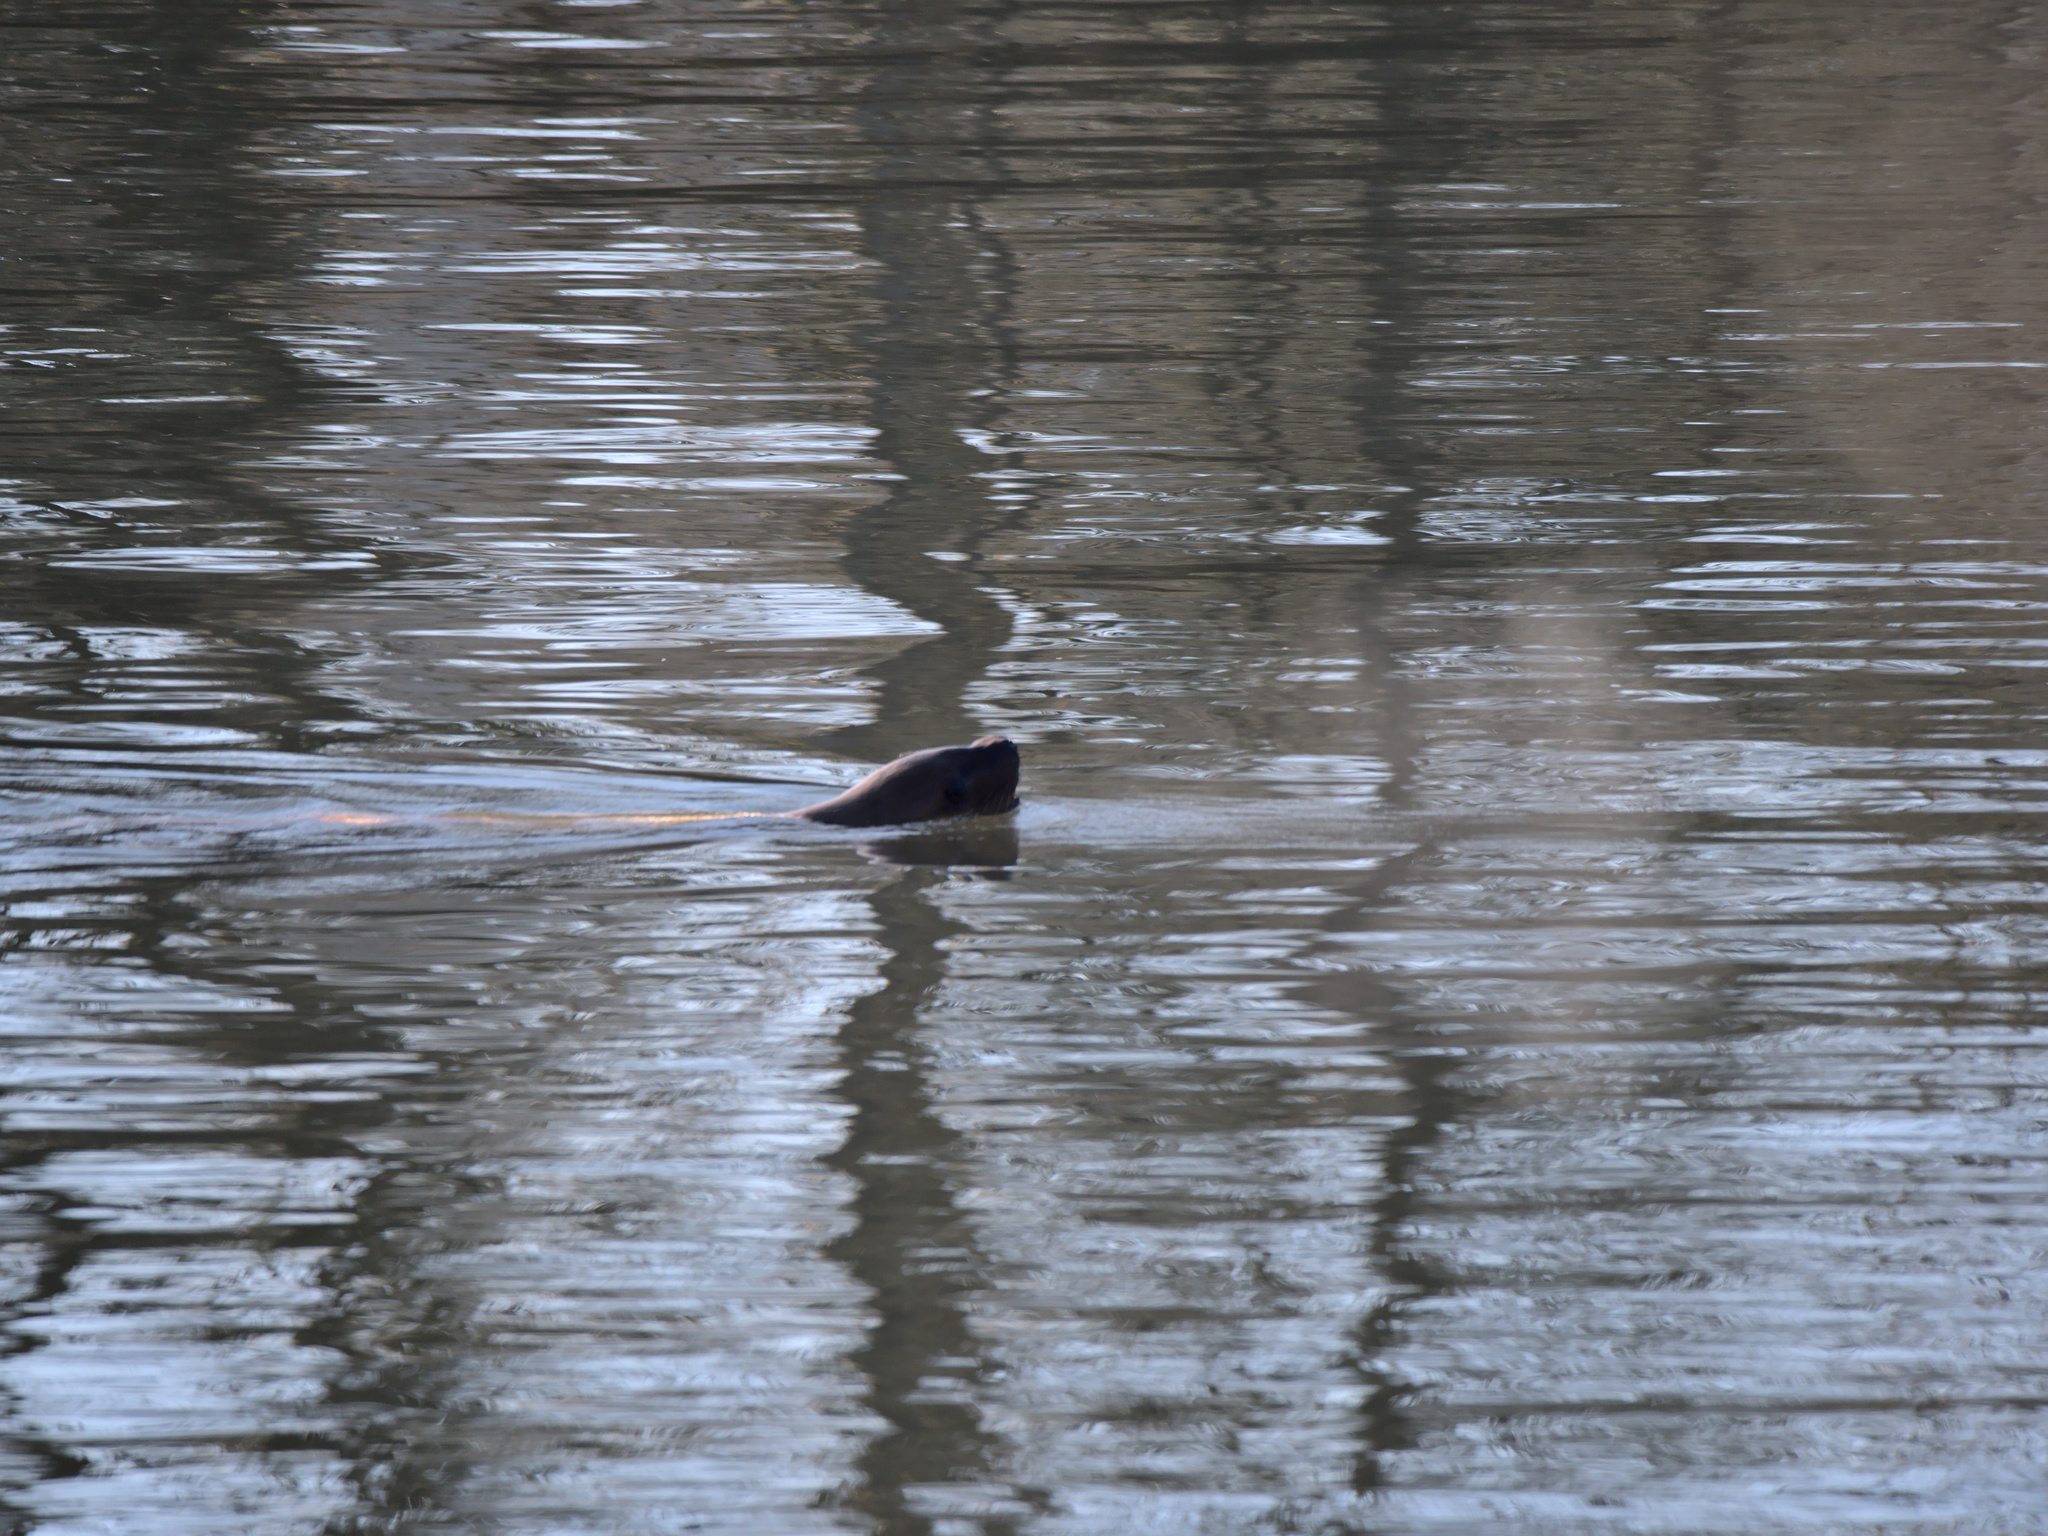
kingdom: Animalia
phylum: Chordata
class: Mammalia
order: Carnivora
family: Otariidae
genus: Zalophus
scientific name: Zalophus californianus
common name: California sea lion
